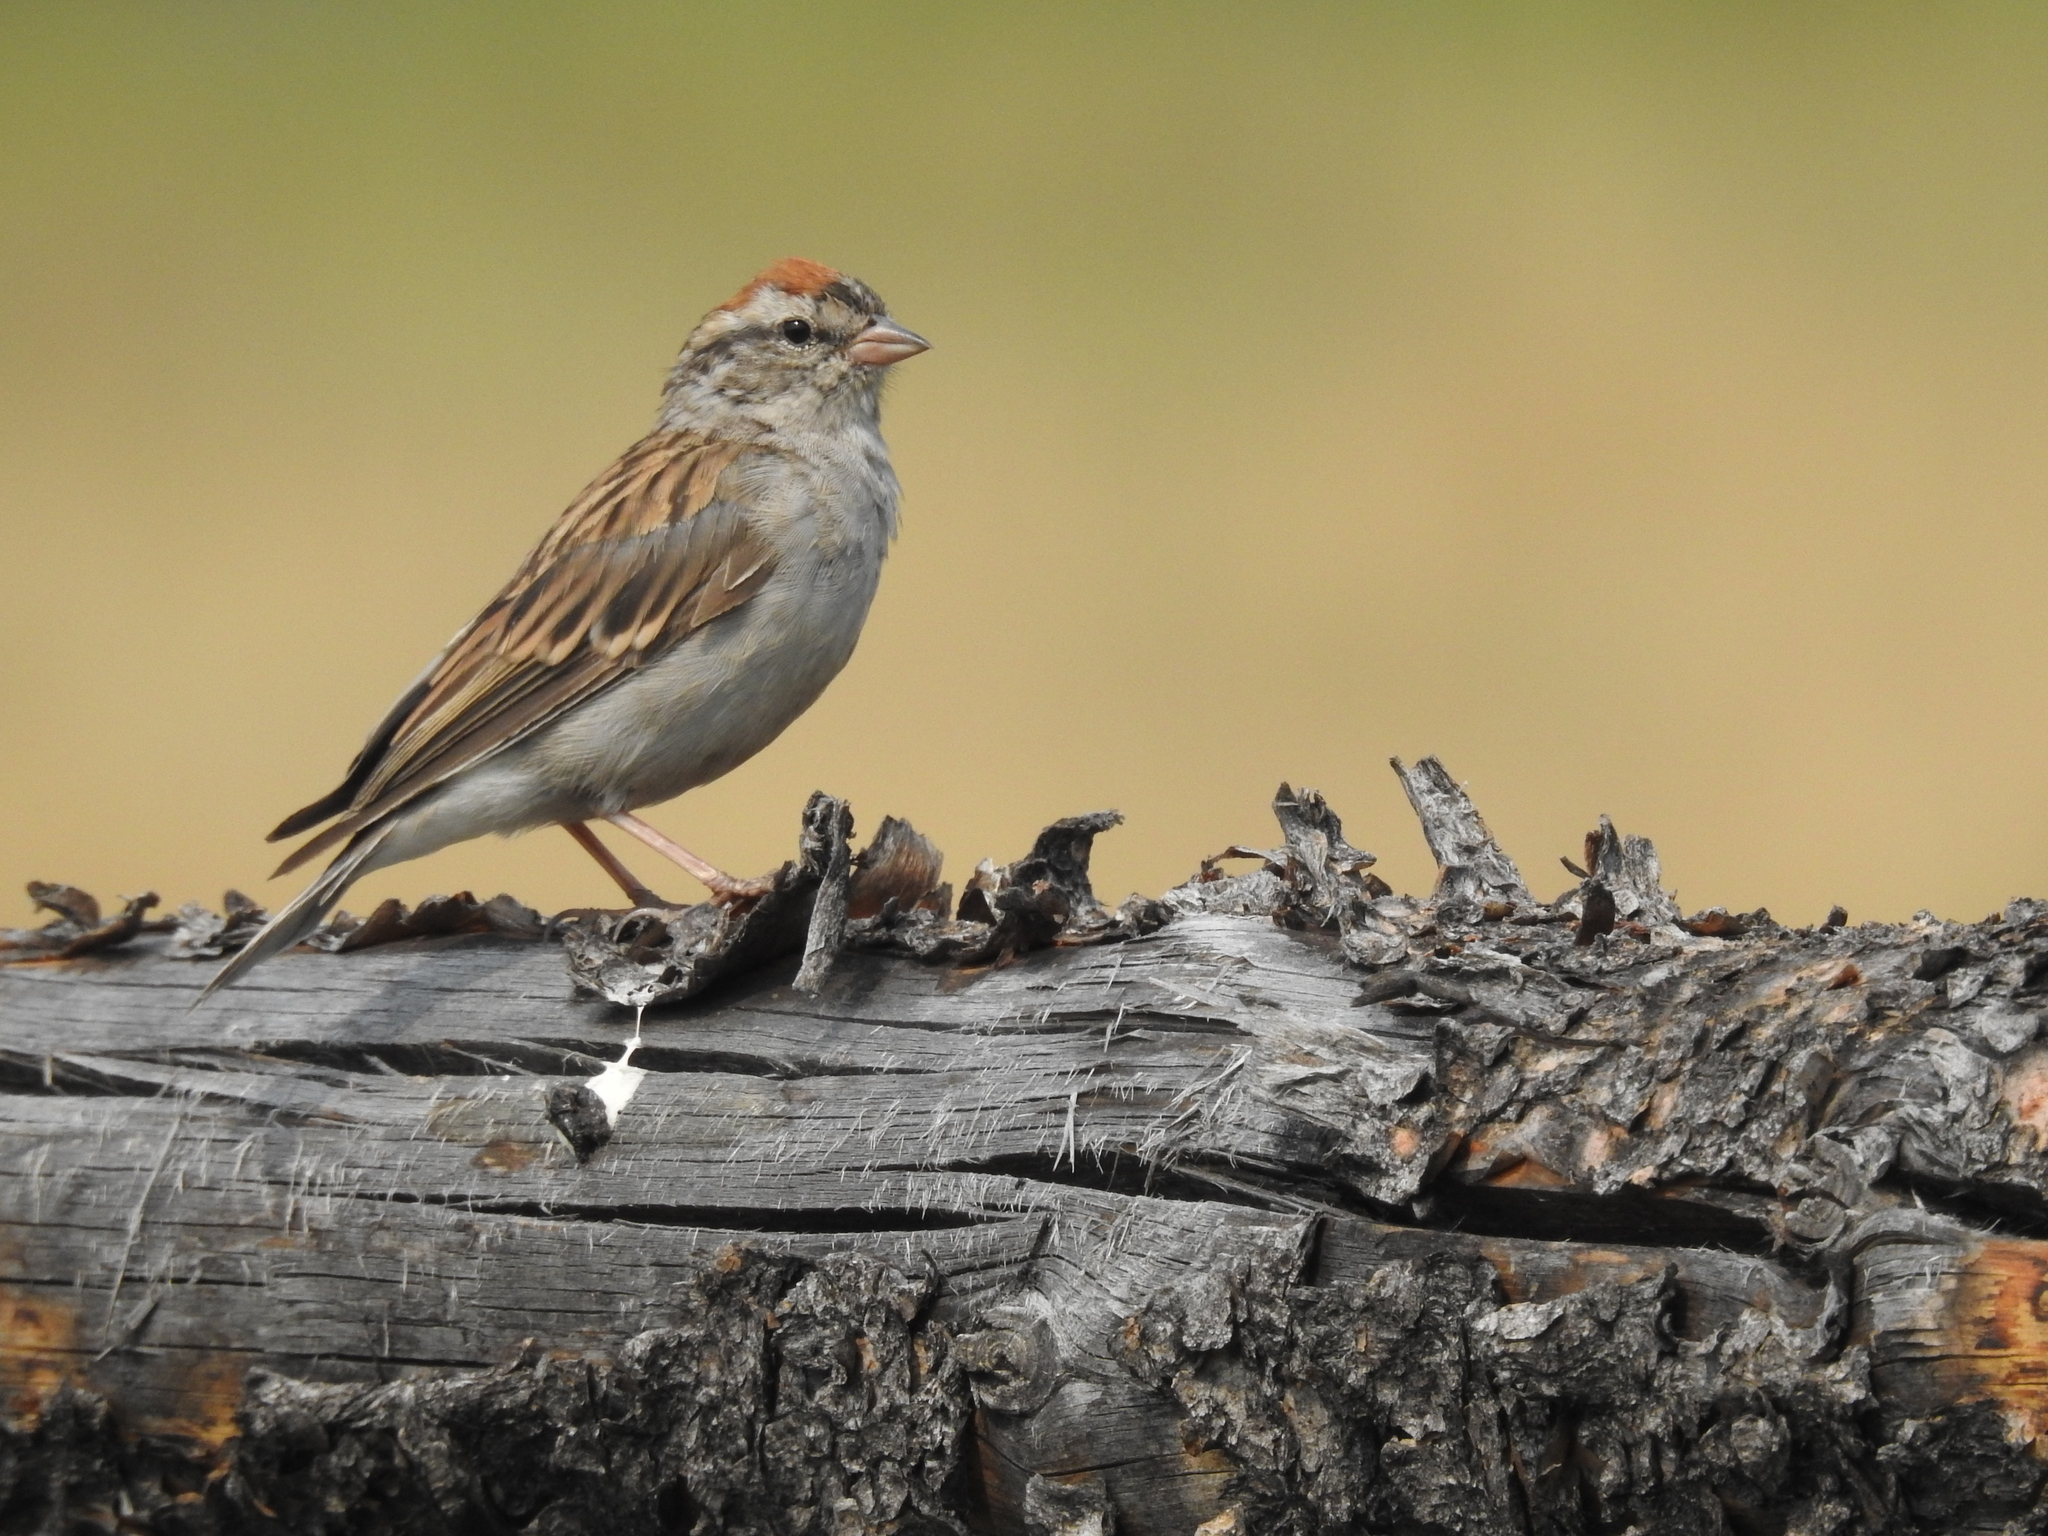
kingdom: Animalia
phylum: Chordata
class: Aves
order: Passeriformes
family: Passerellidae
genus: Spizella
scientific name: Spizella passerina
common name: Chipping sparrow
